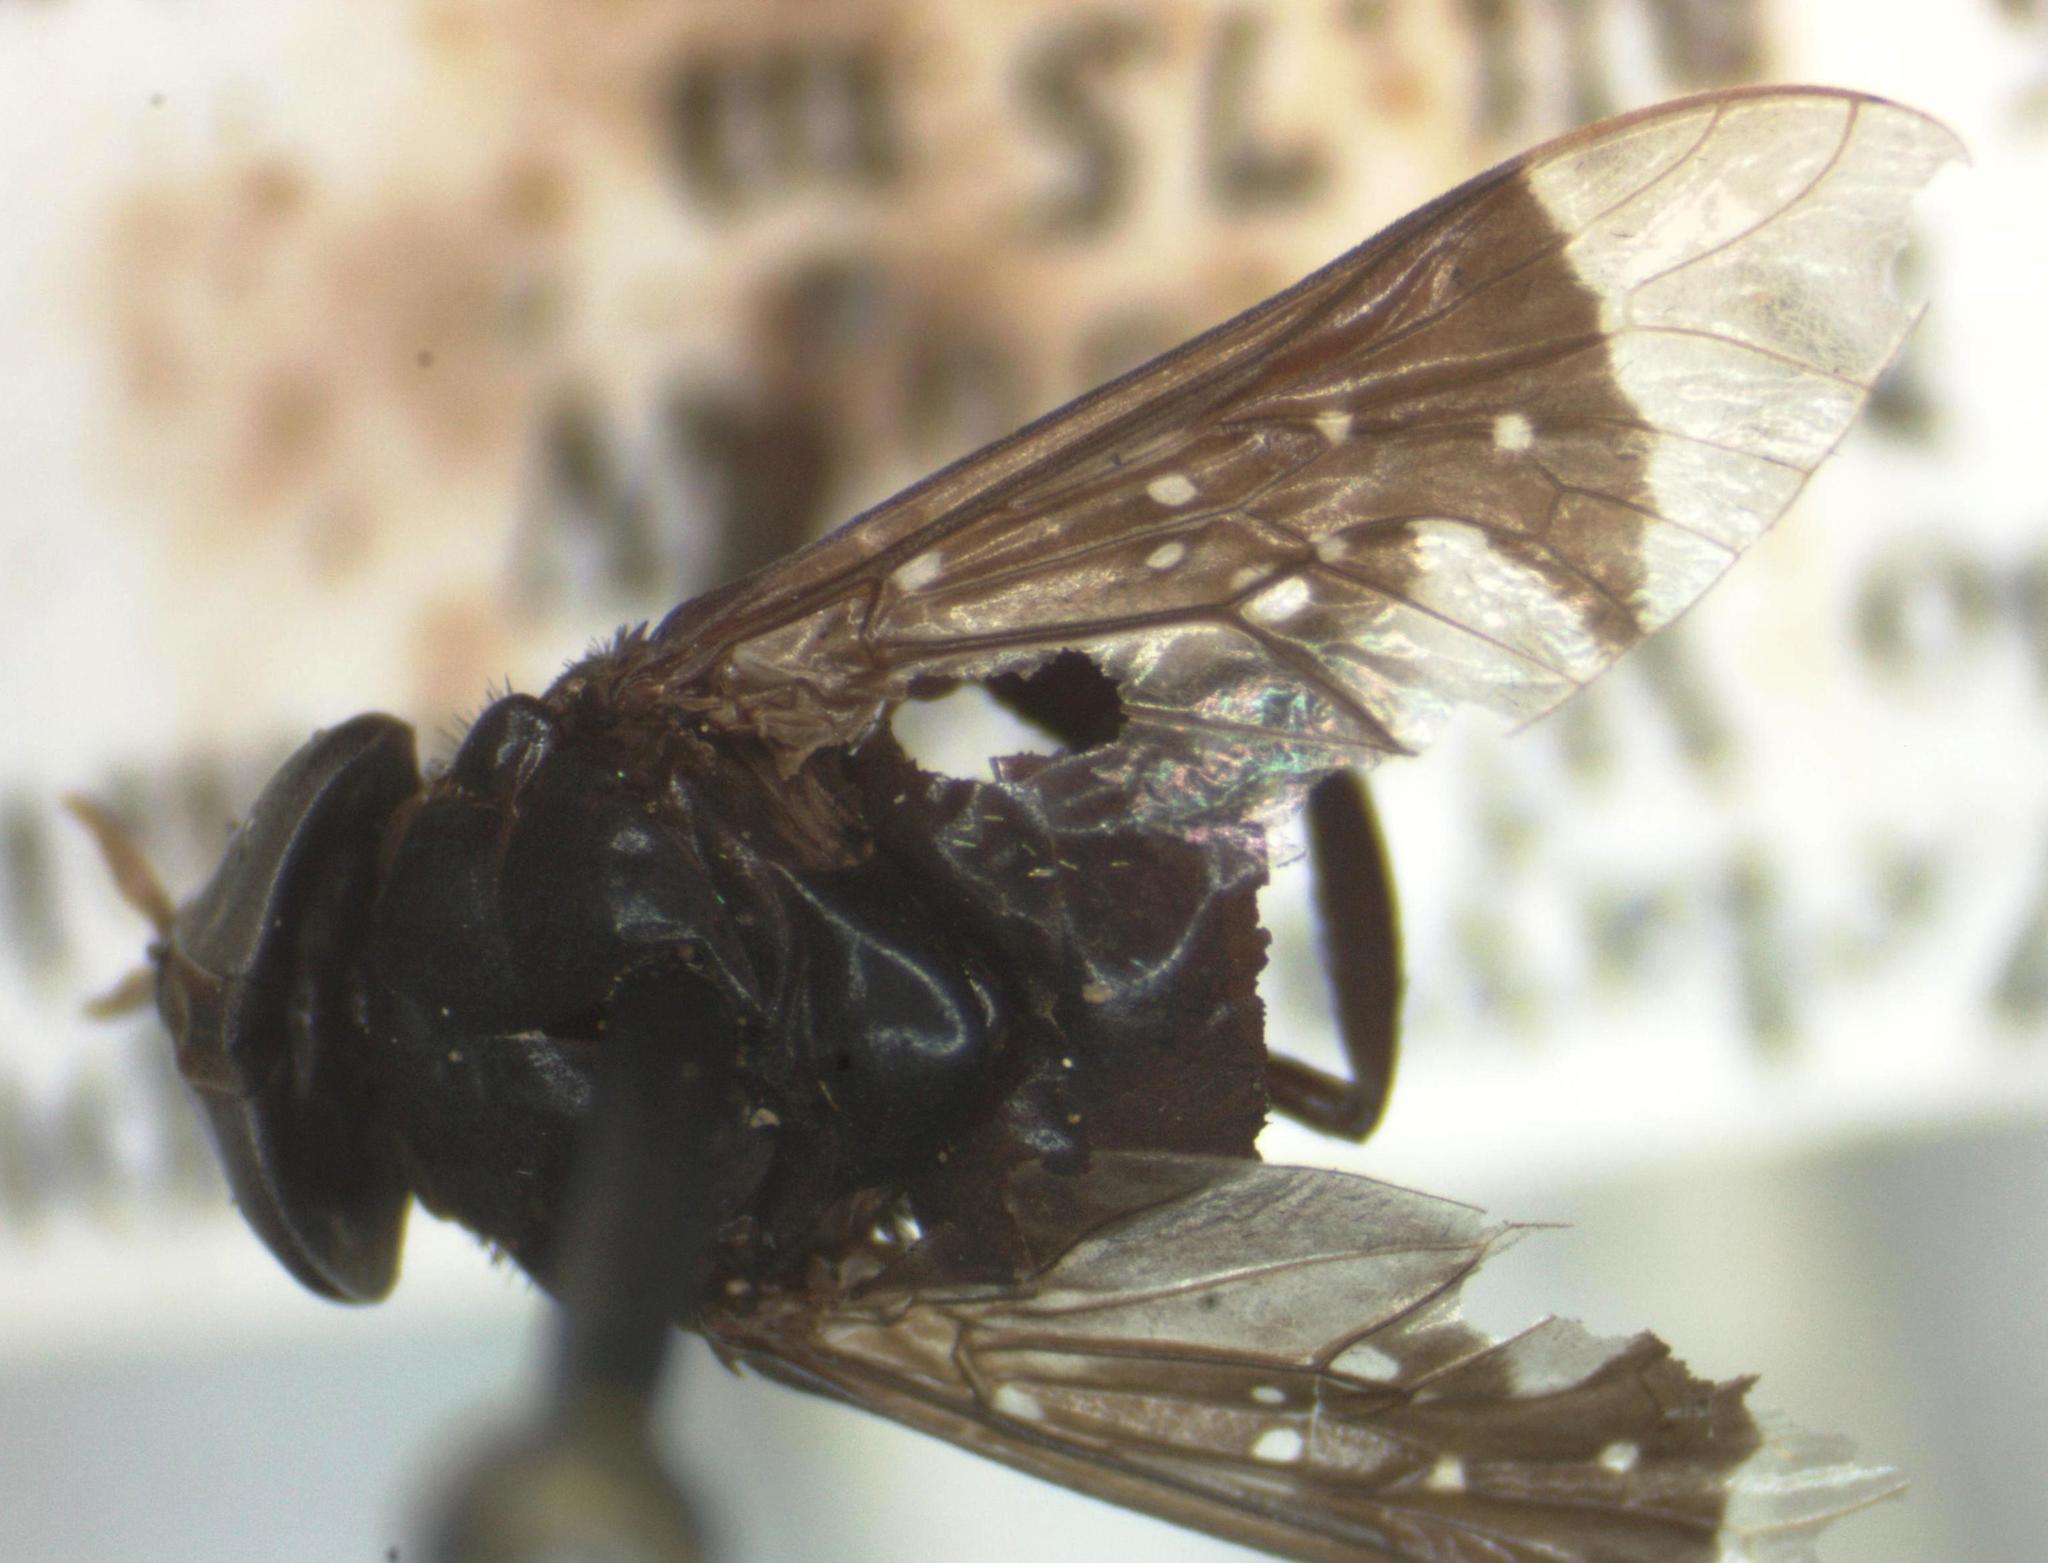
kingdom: Animalia
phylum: Arthropoda
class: Insecta
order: Diptera
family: Tabanidae
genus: Lepiselaga
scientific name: Lepiselaga crassipes
